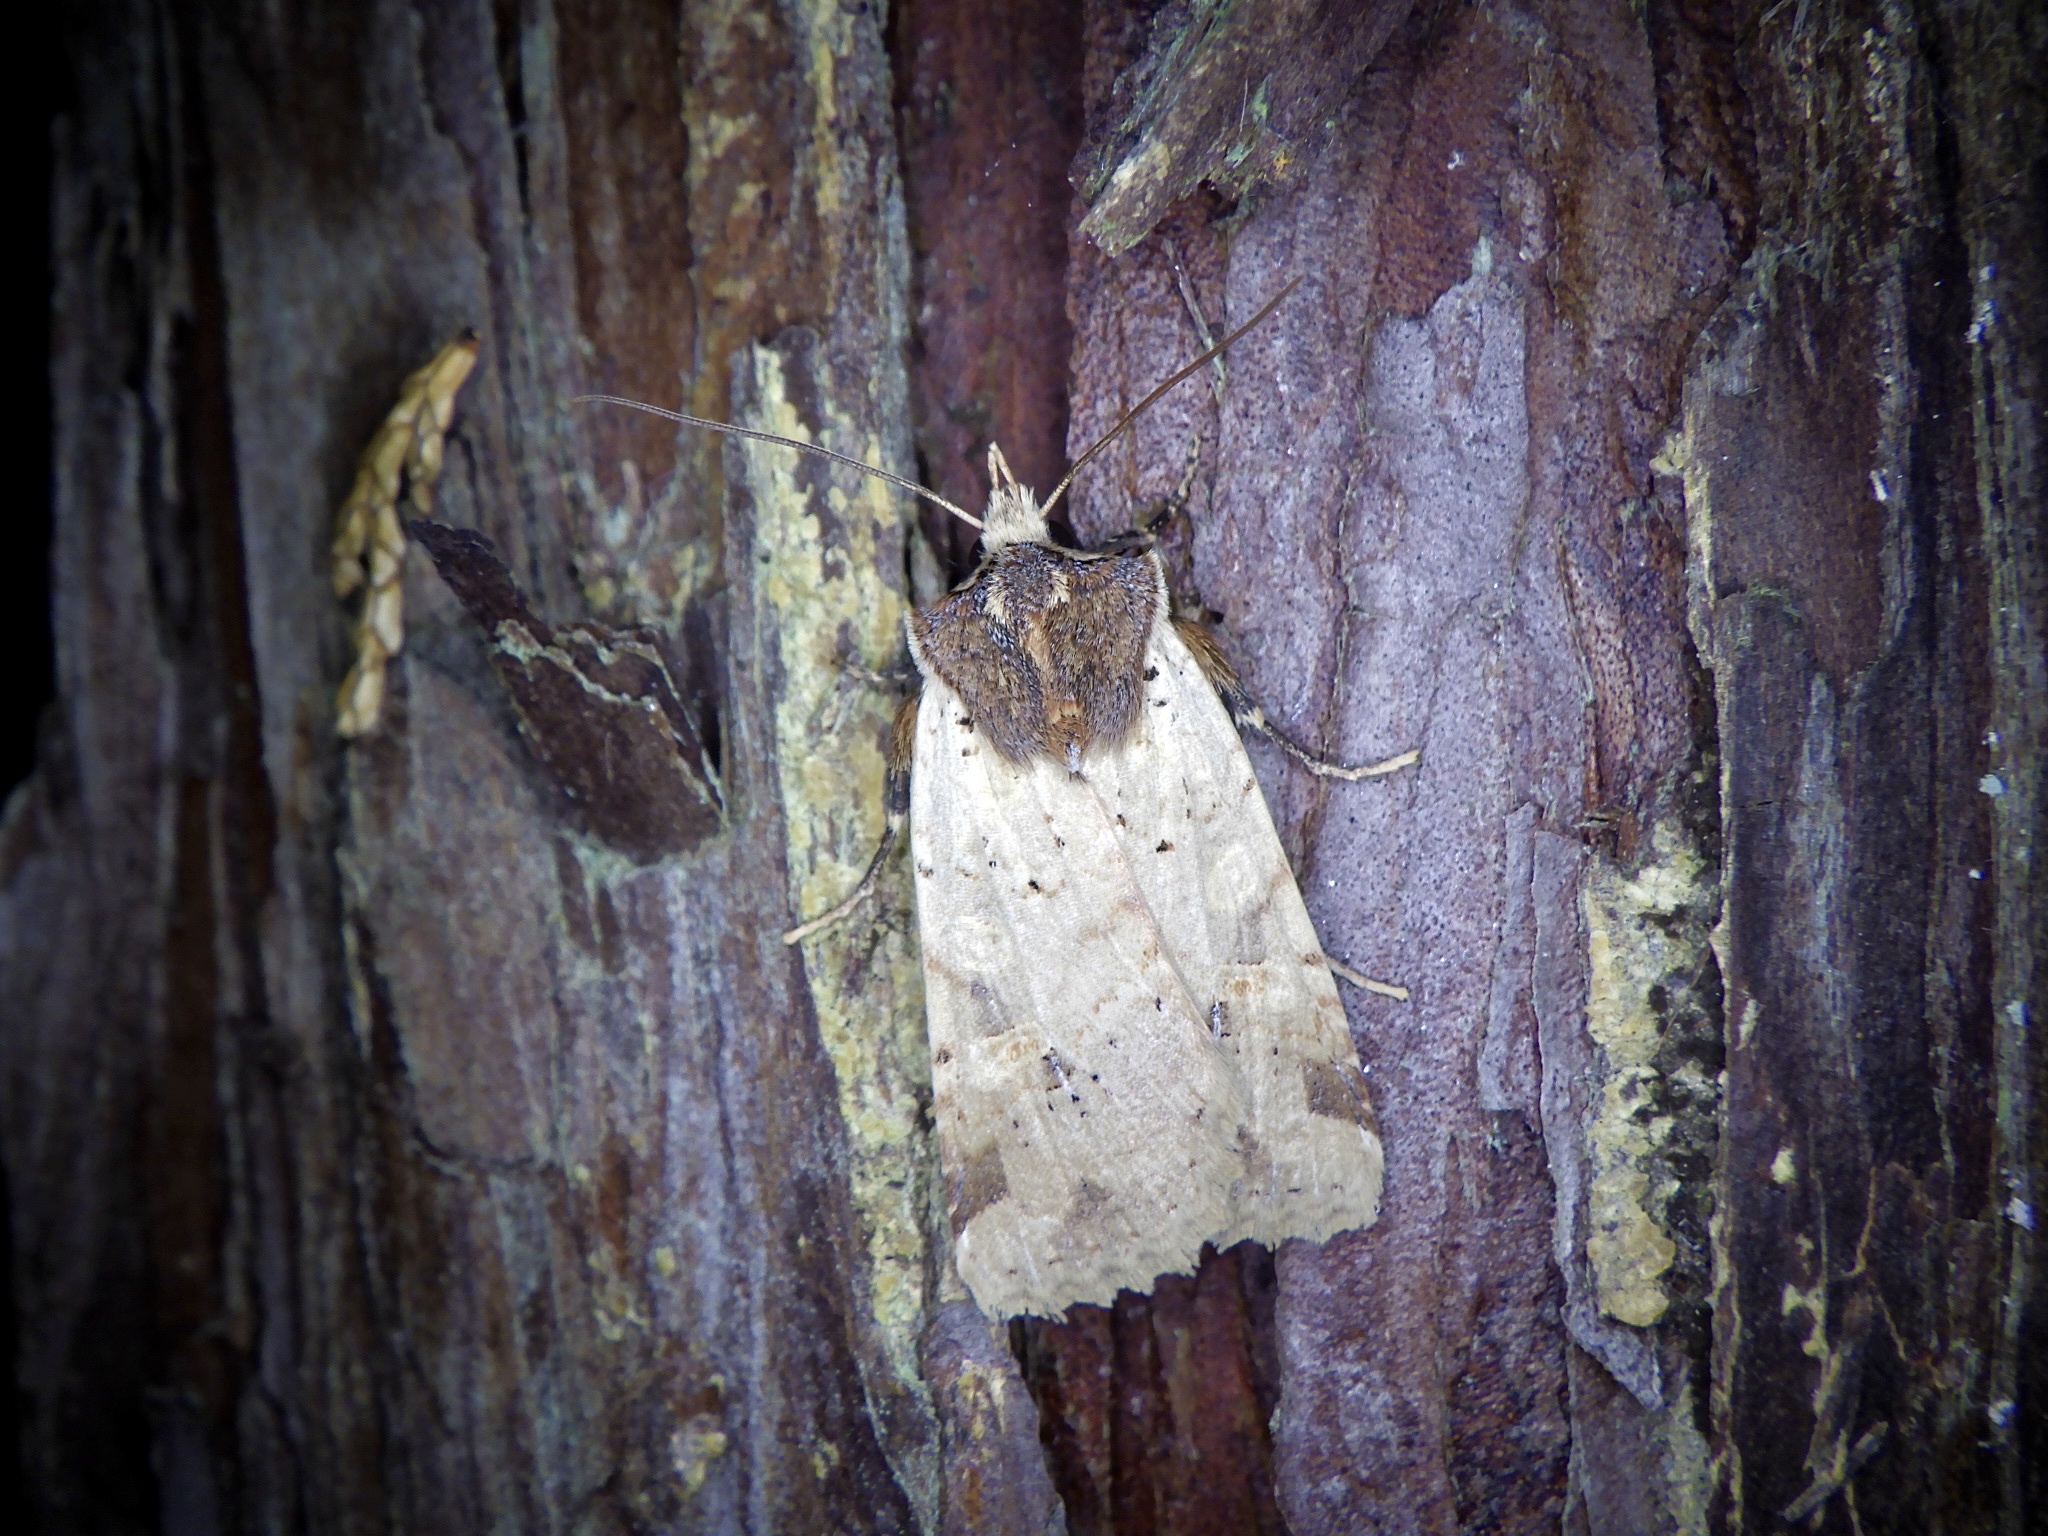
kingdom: Animalia
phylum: Arthropoda
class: Insecta
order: Lepidoptera
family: Noctuidae
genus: Rhynchaglaea
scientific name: Rhynchaglaea scitula
